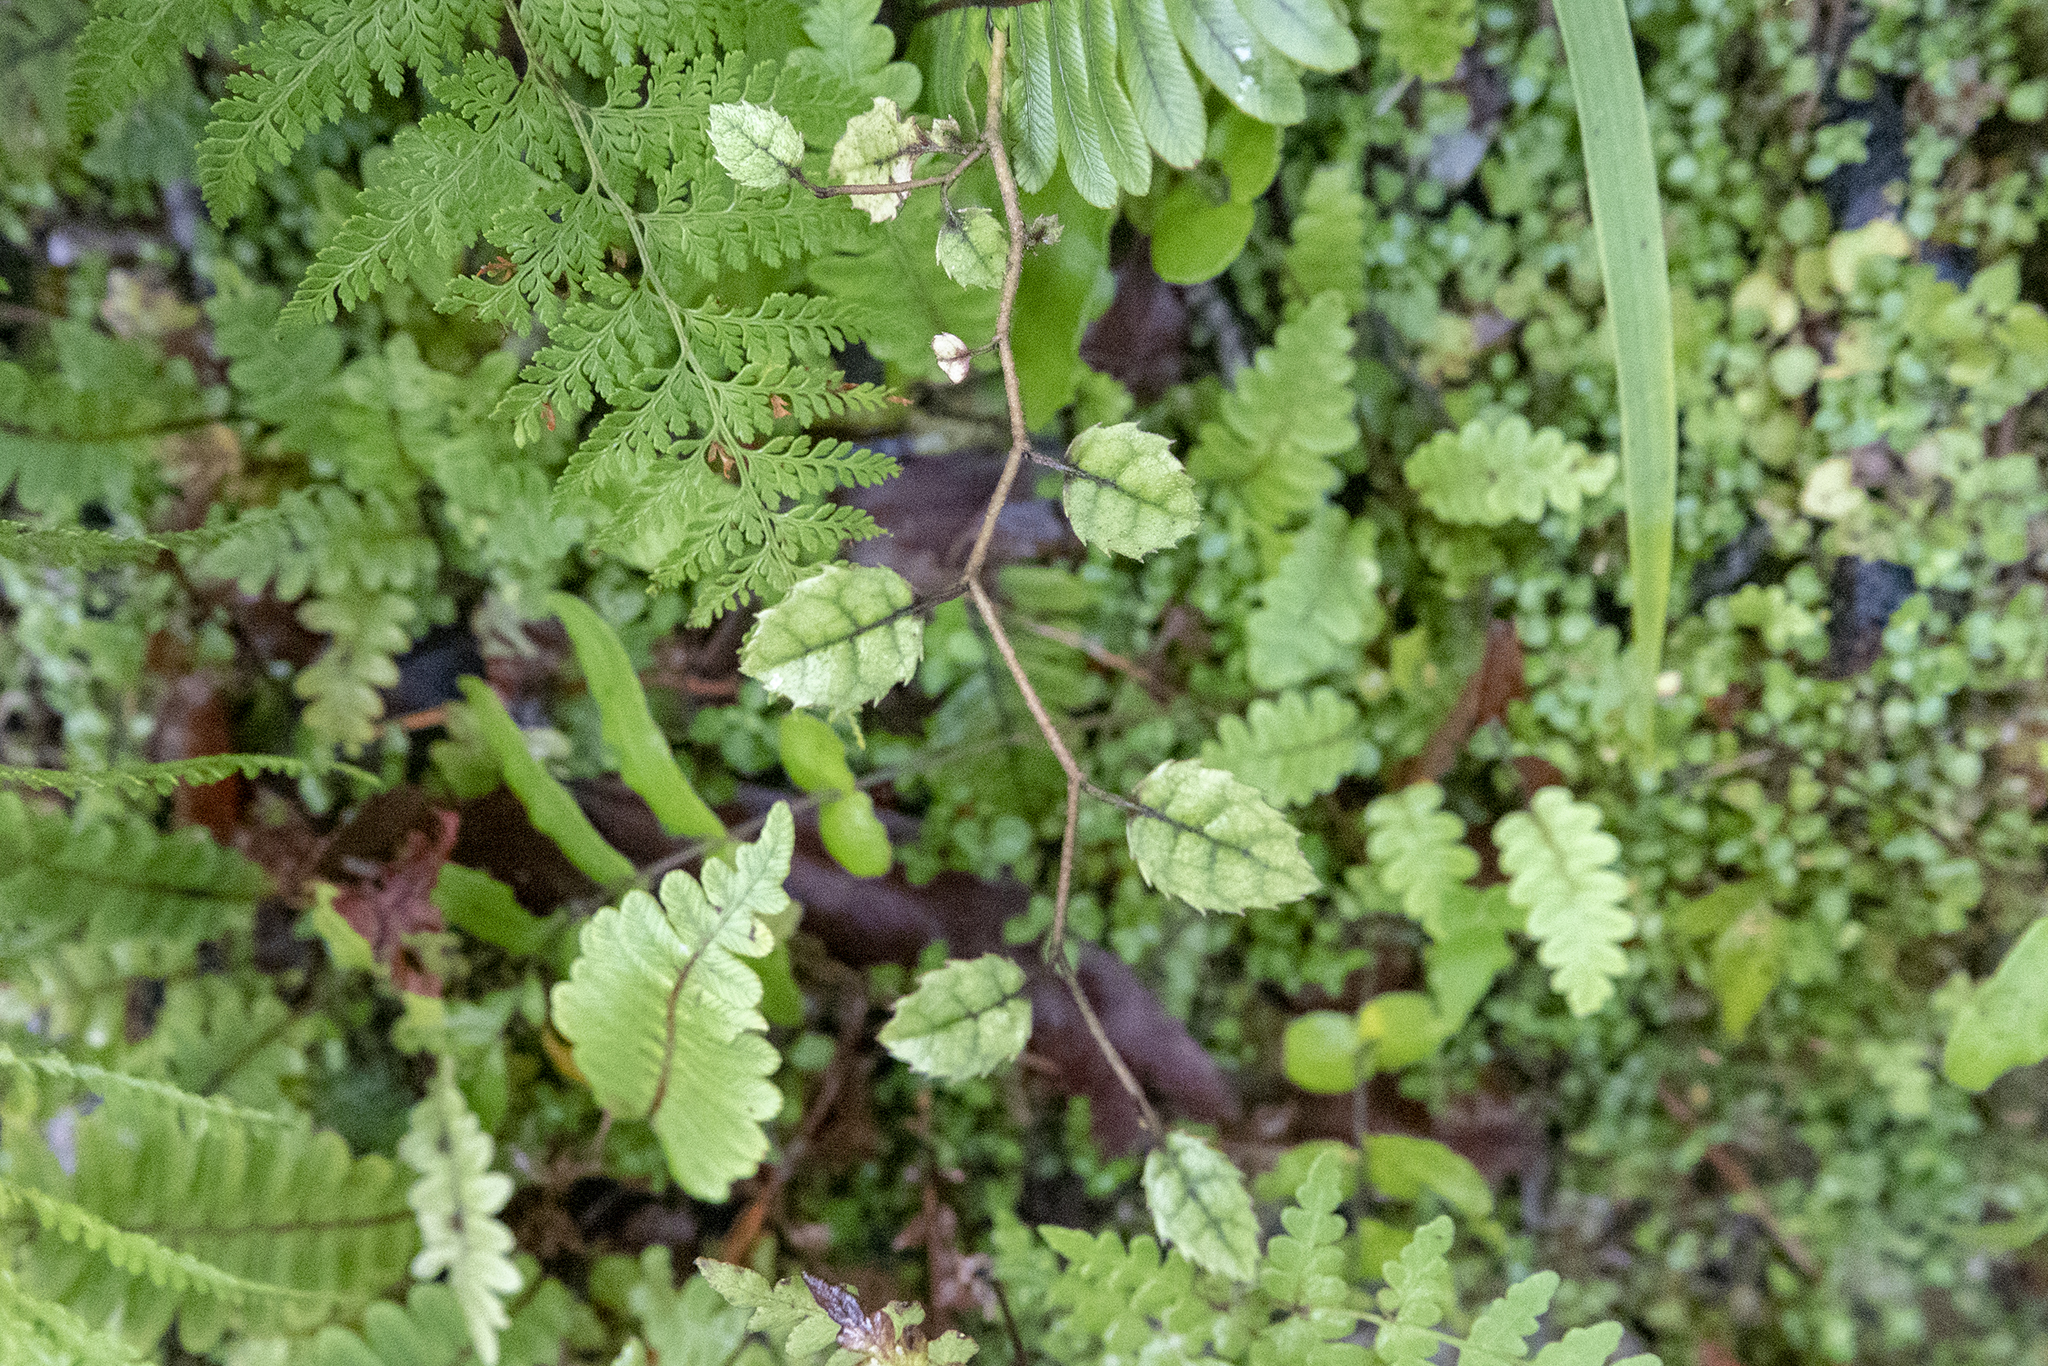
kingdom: Plantae
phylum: Tracheophyta
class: Magnoliopsida
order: Asterales
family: Rousseaceae
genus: Carpodetus
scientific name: Carpodetus serratus
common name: White mapau
